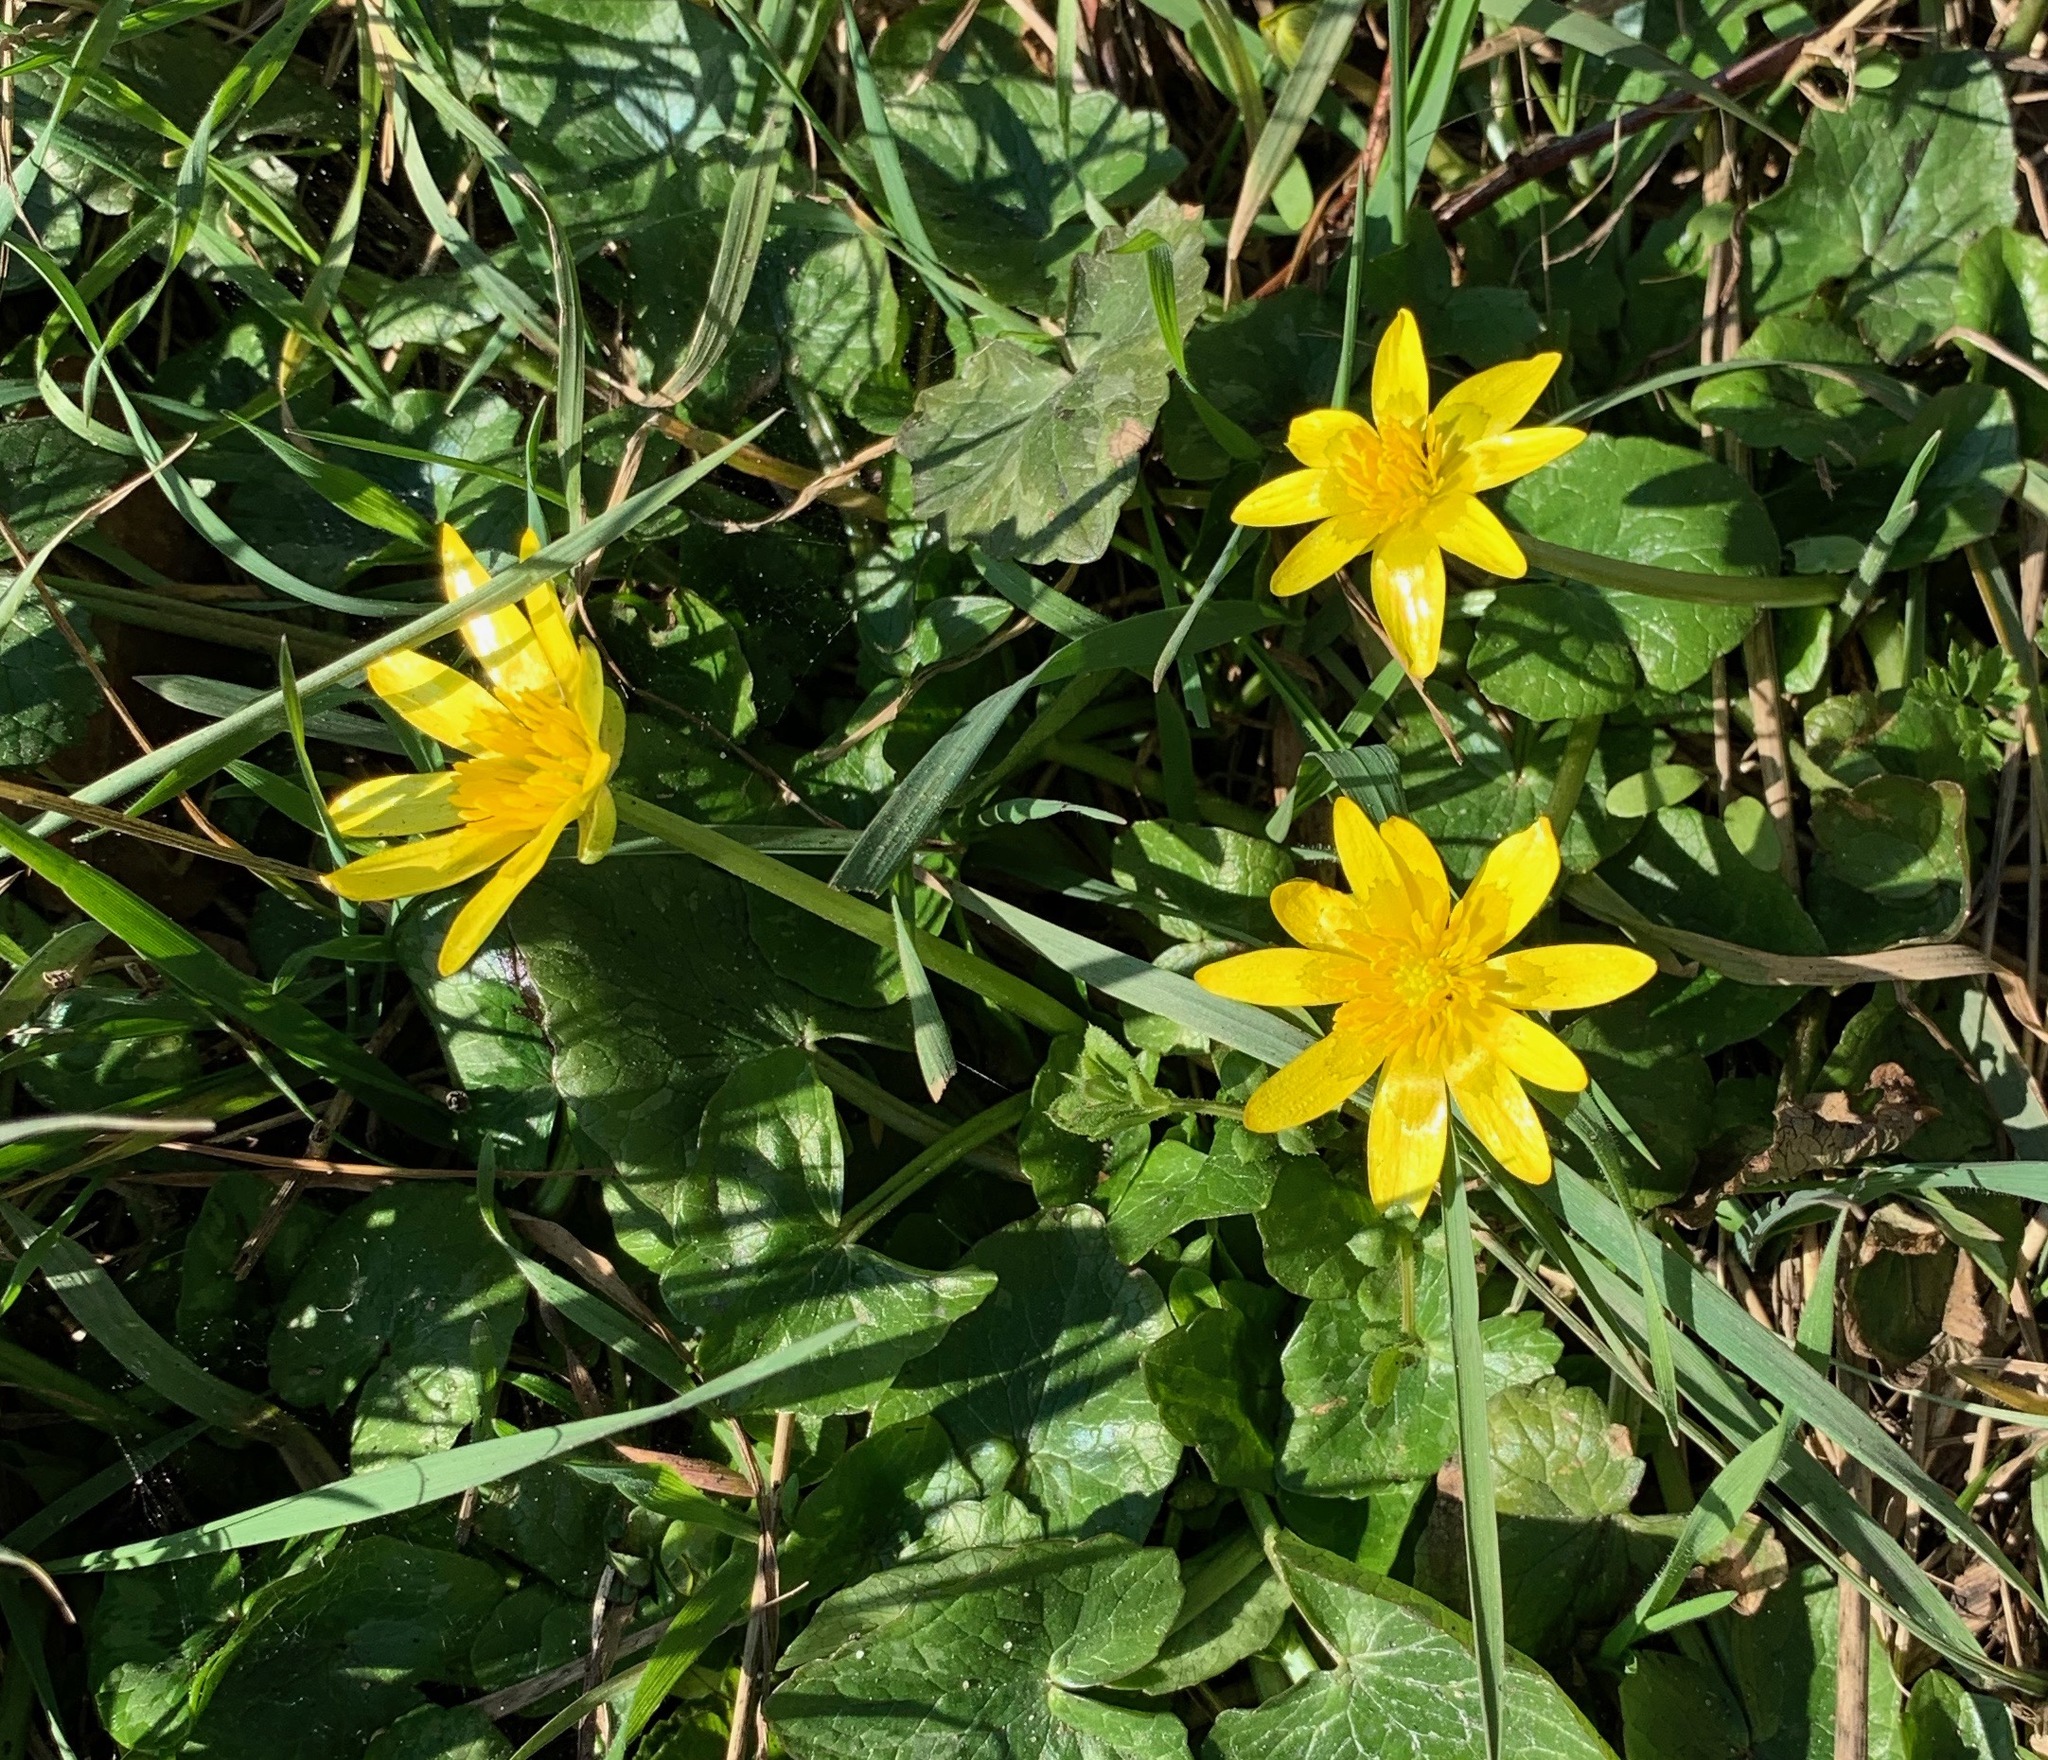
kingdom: Plantae
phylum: Tracheophyta
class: Magnoliopsida
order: Ranunculales
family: Ranunculaceae
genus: Ficaria
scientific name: Ficaria verna
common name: Lesser celandine
